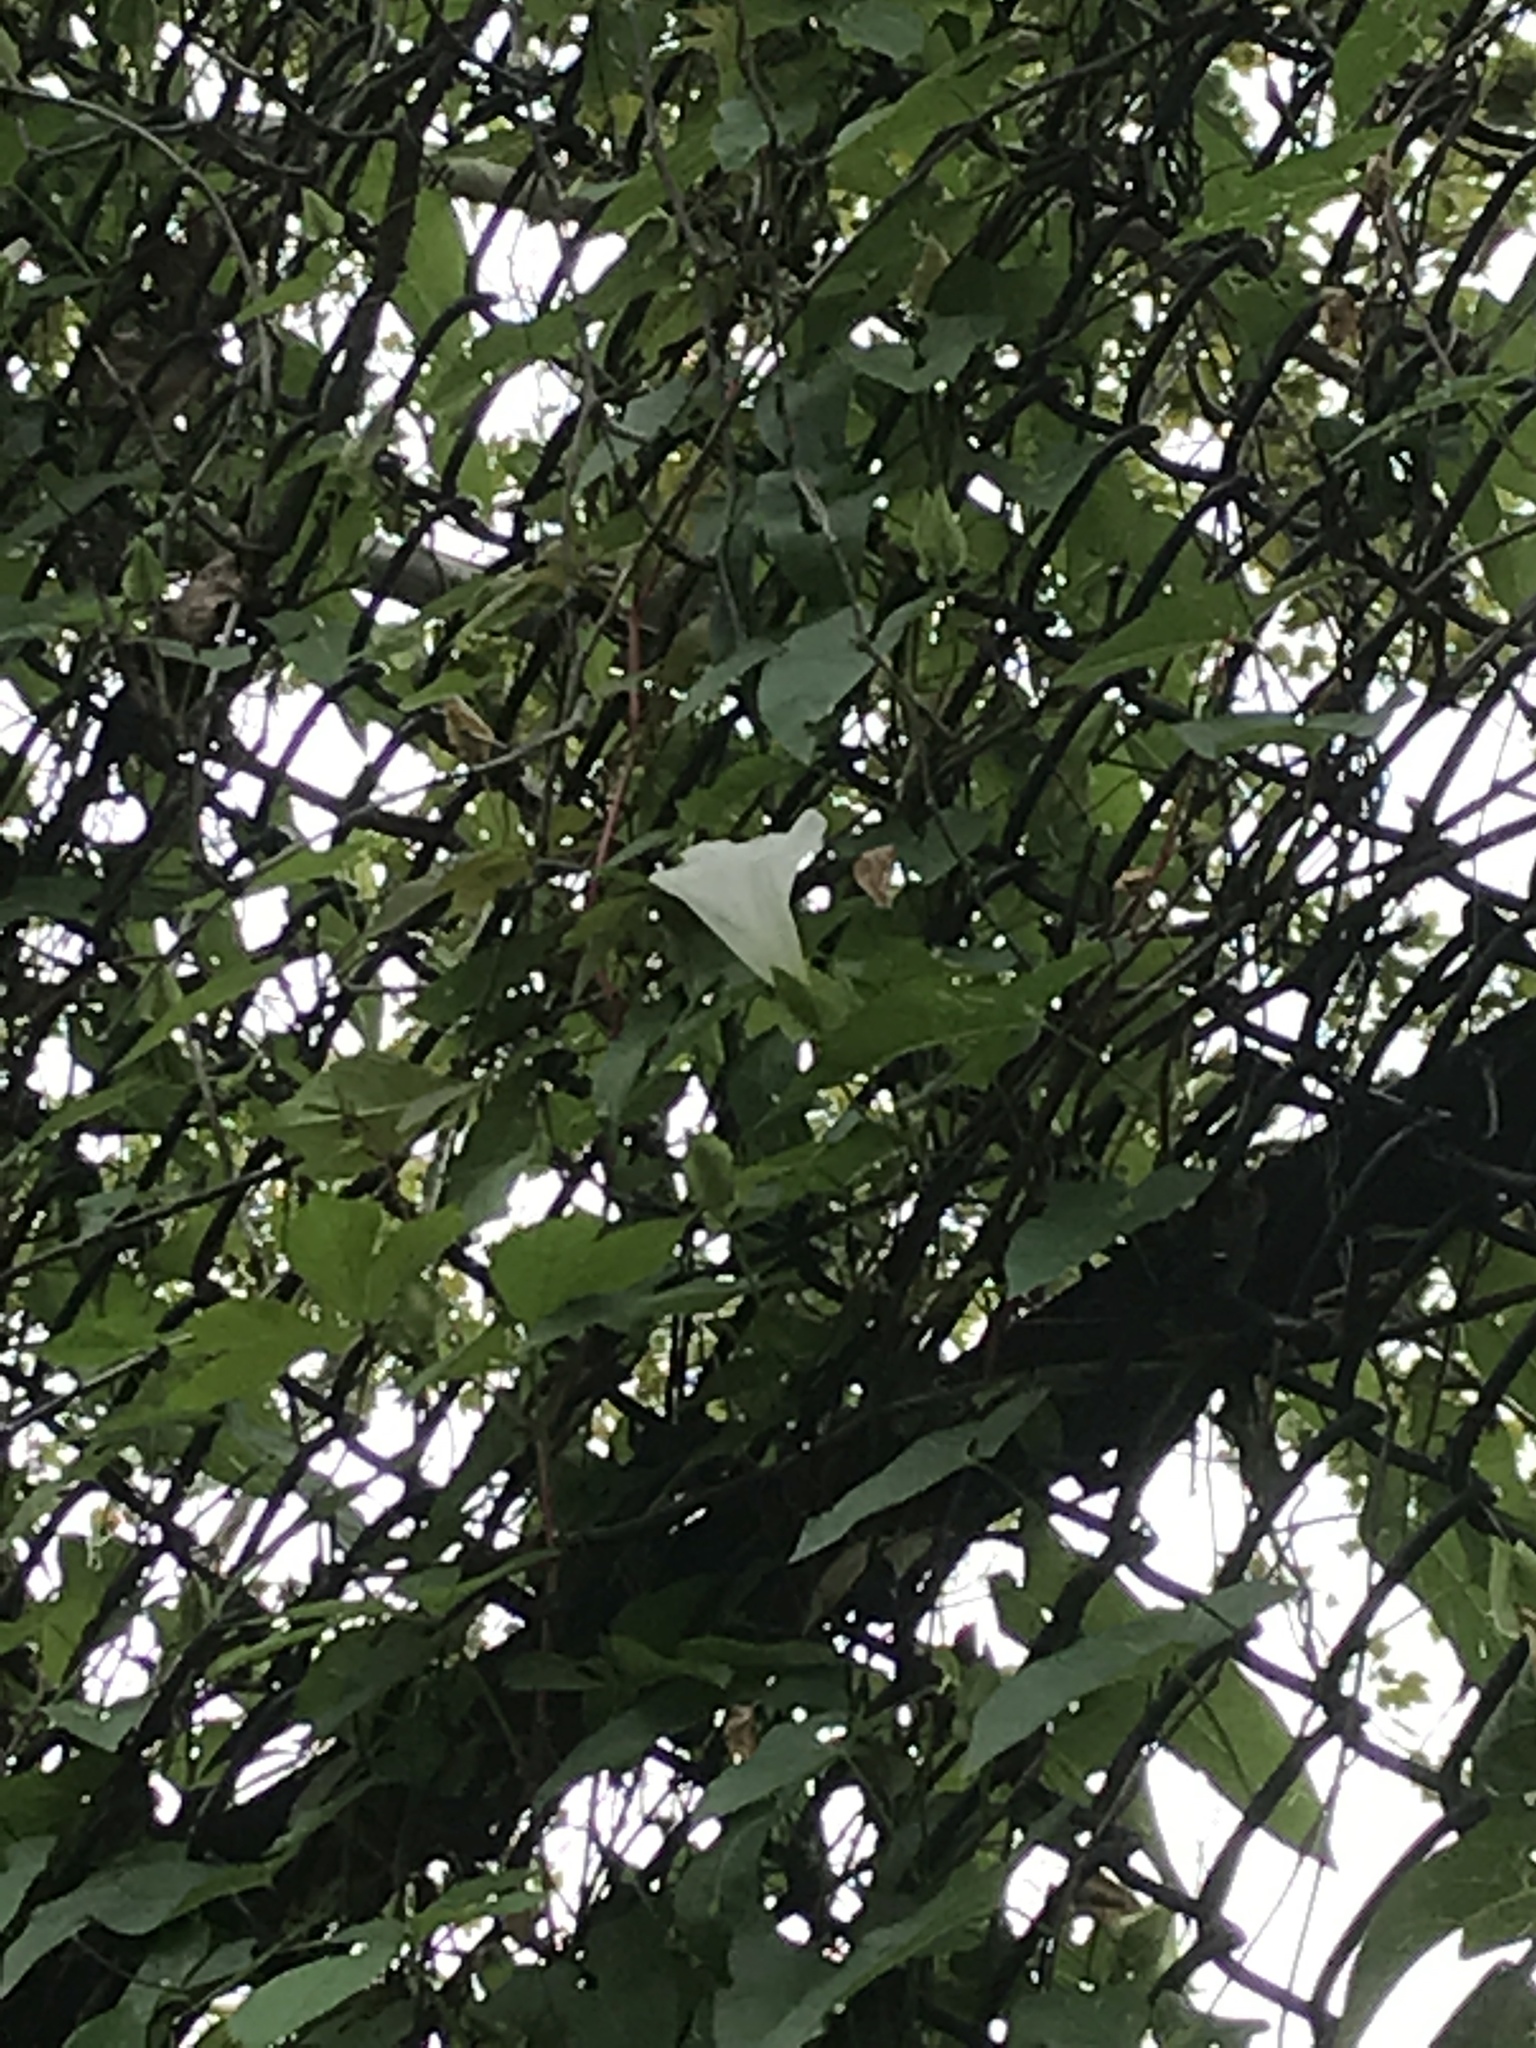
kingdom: Plantae
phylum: Tracheophyta
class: Magnoliopsida
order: Solanales
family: Convolvulaceae
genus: Calystegia
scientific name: Calystegia sepium
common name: Hedge bindweed
